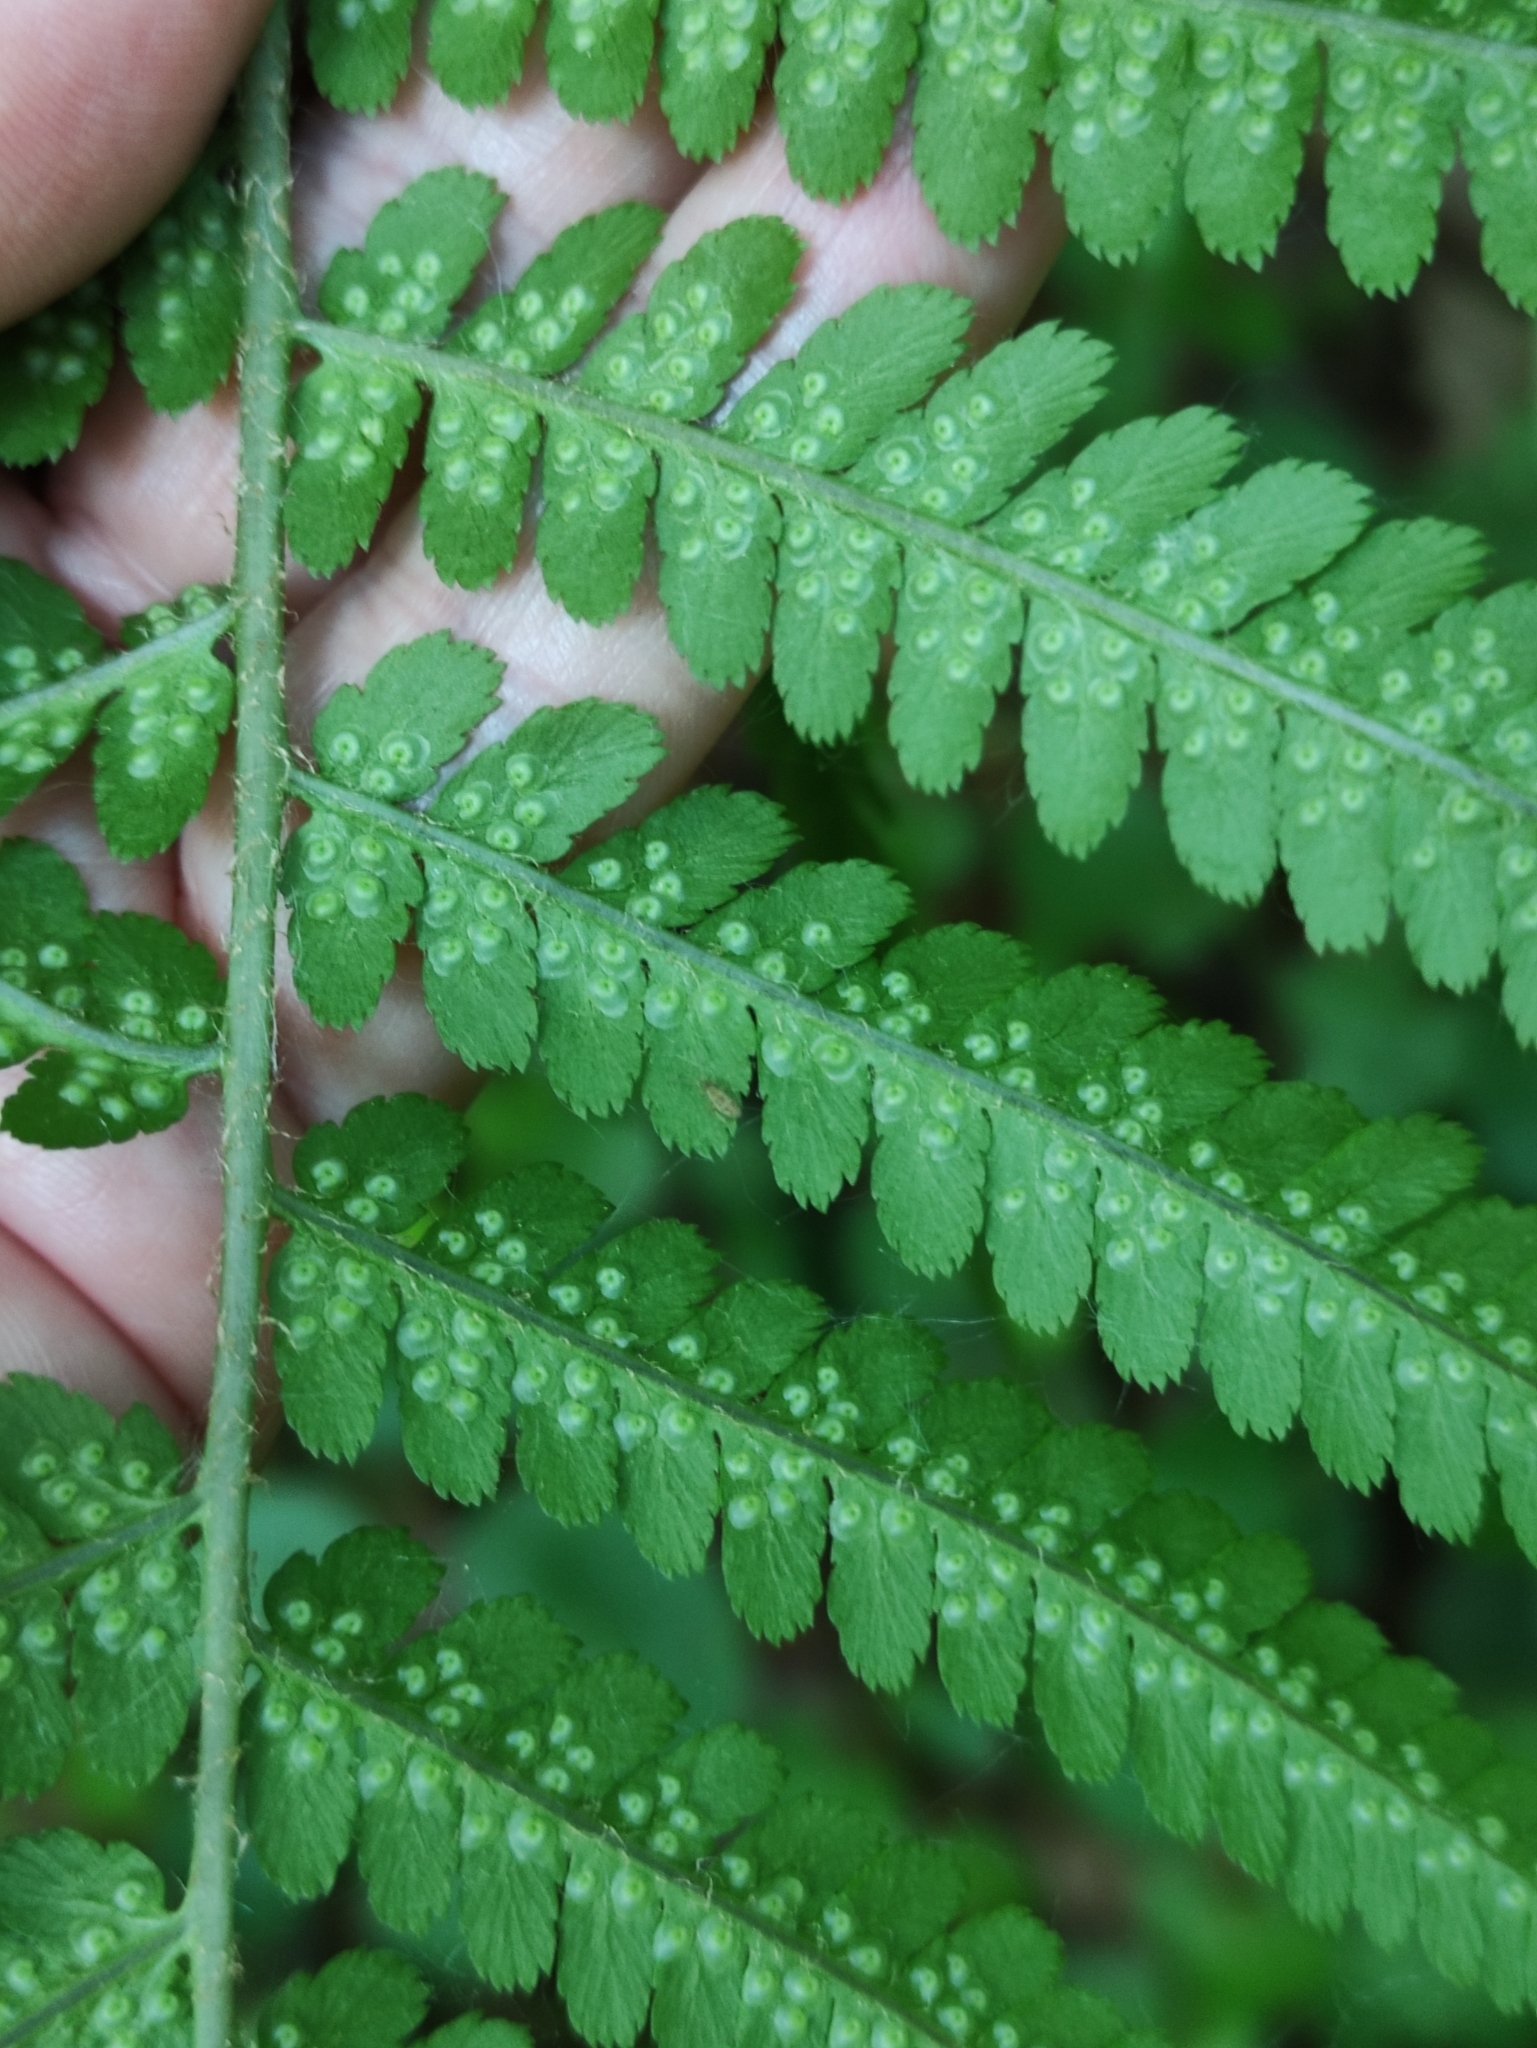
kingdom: Plantae
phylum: Tracheophyta
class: Polypodiopsida
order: Polypodiales
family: Dryopteridaceae
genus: Dryopteris
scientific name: Dryopteris filix-mas
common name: Male fern
